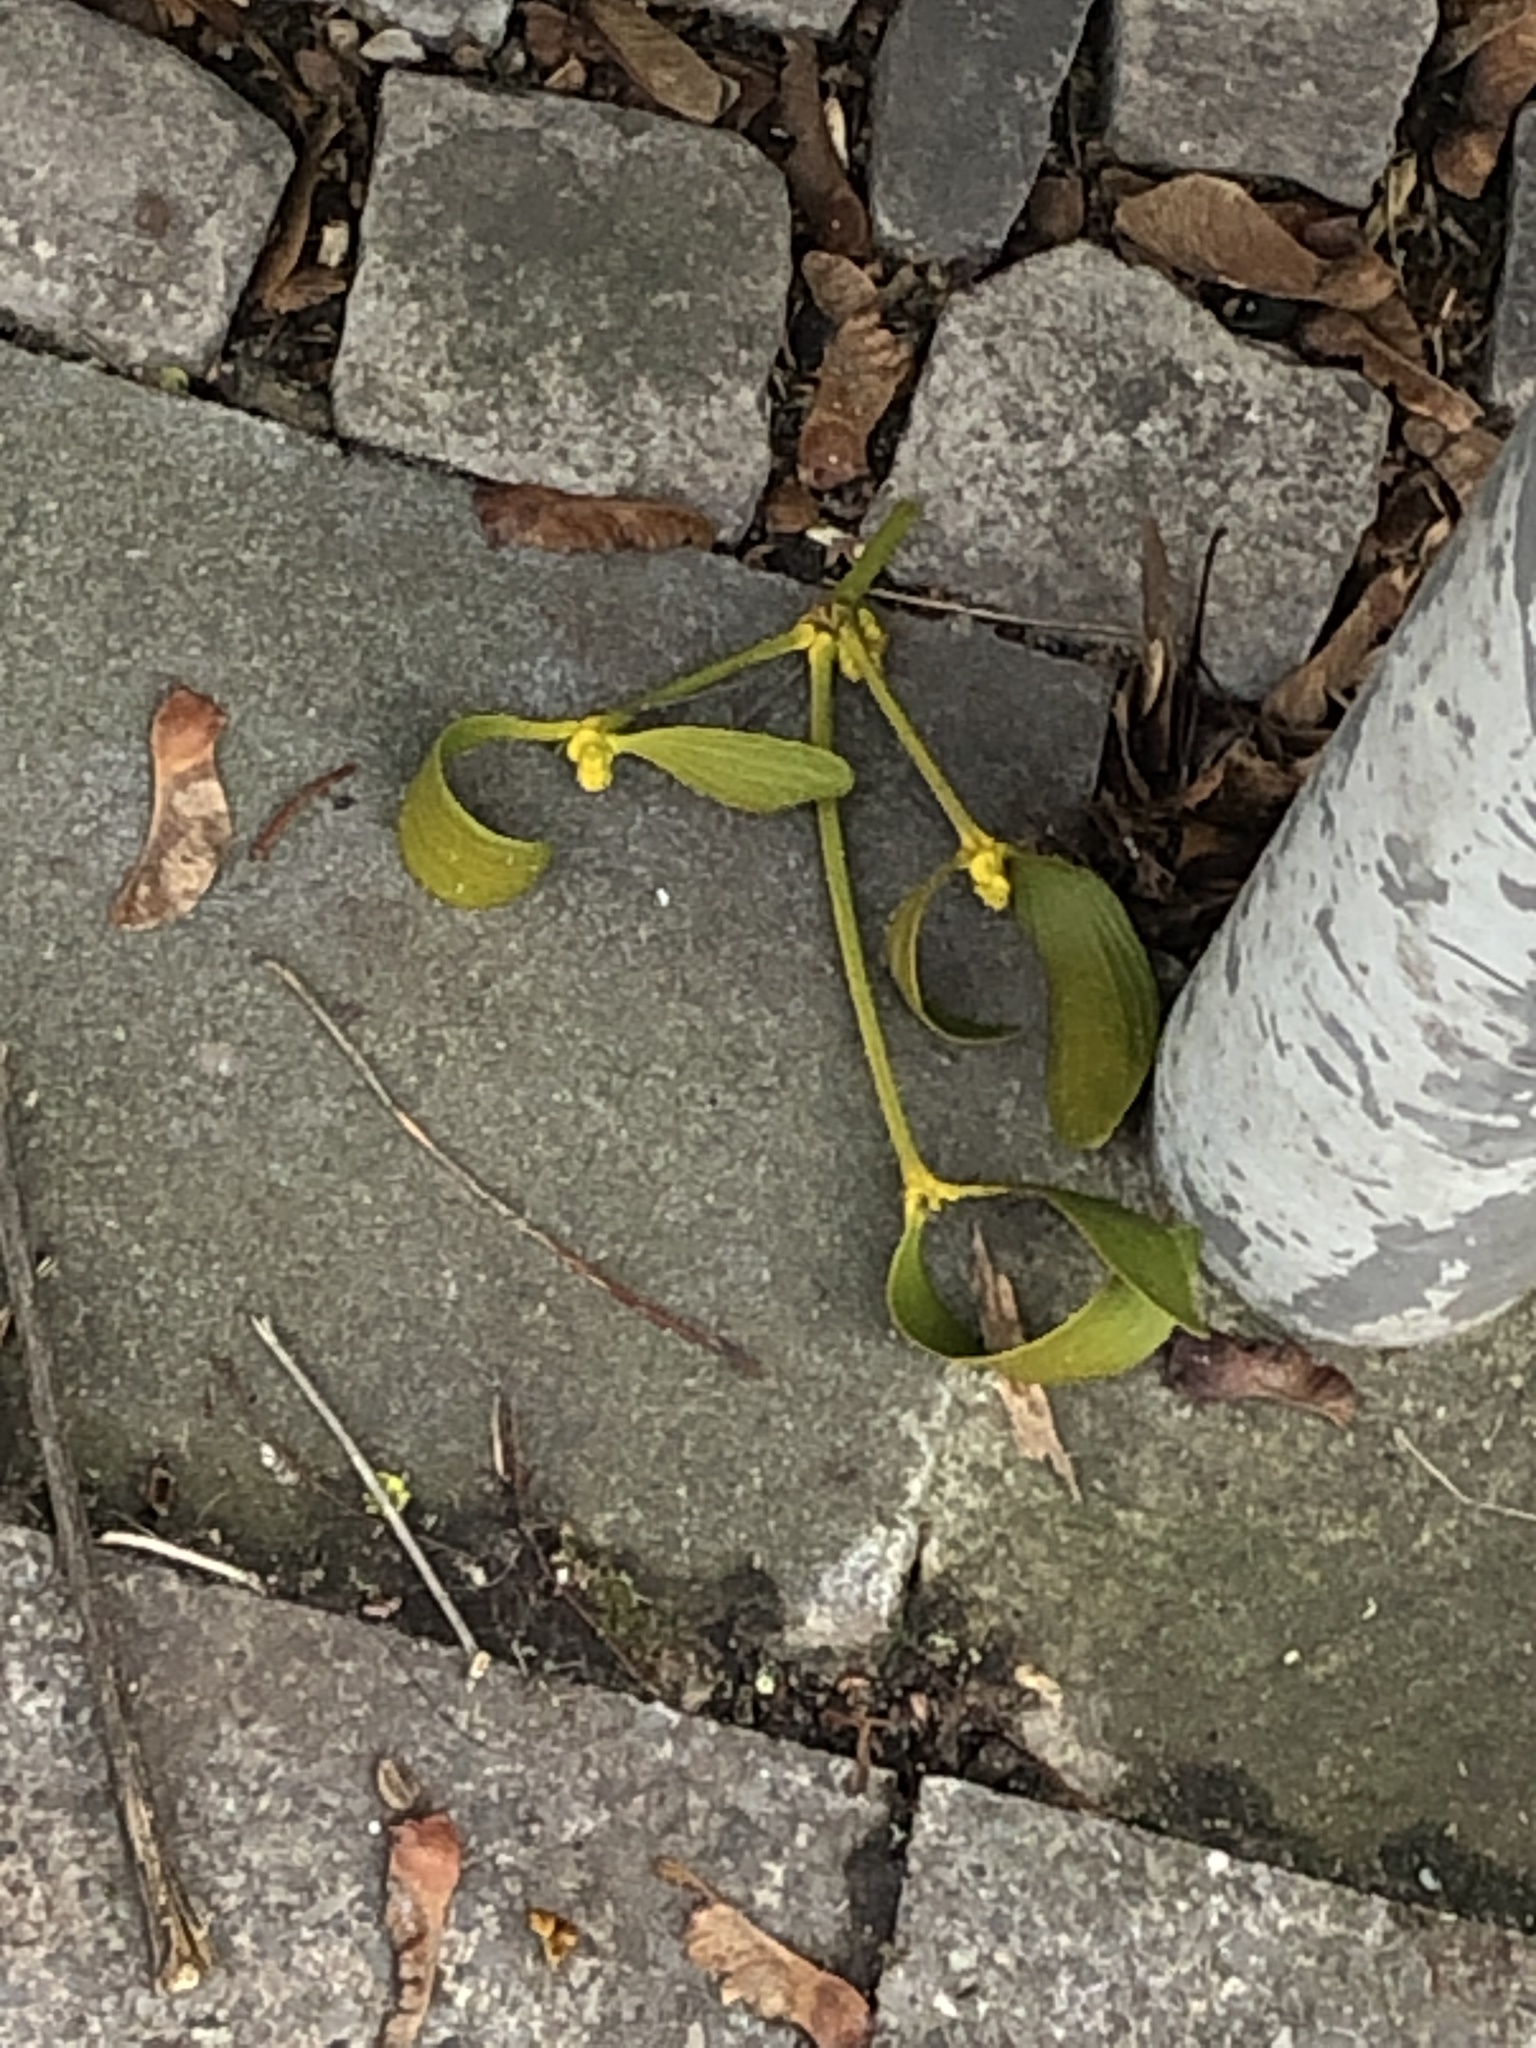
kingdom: Plantae
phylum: Tracheophyta
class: Magnoliopsida
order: Santalales
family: Viscaceae
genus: Viscum
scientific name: Viscum album
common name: Mistletoe
